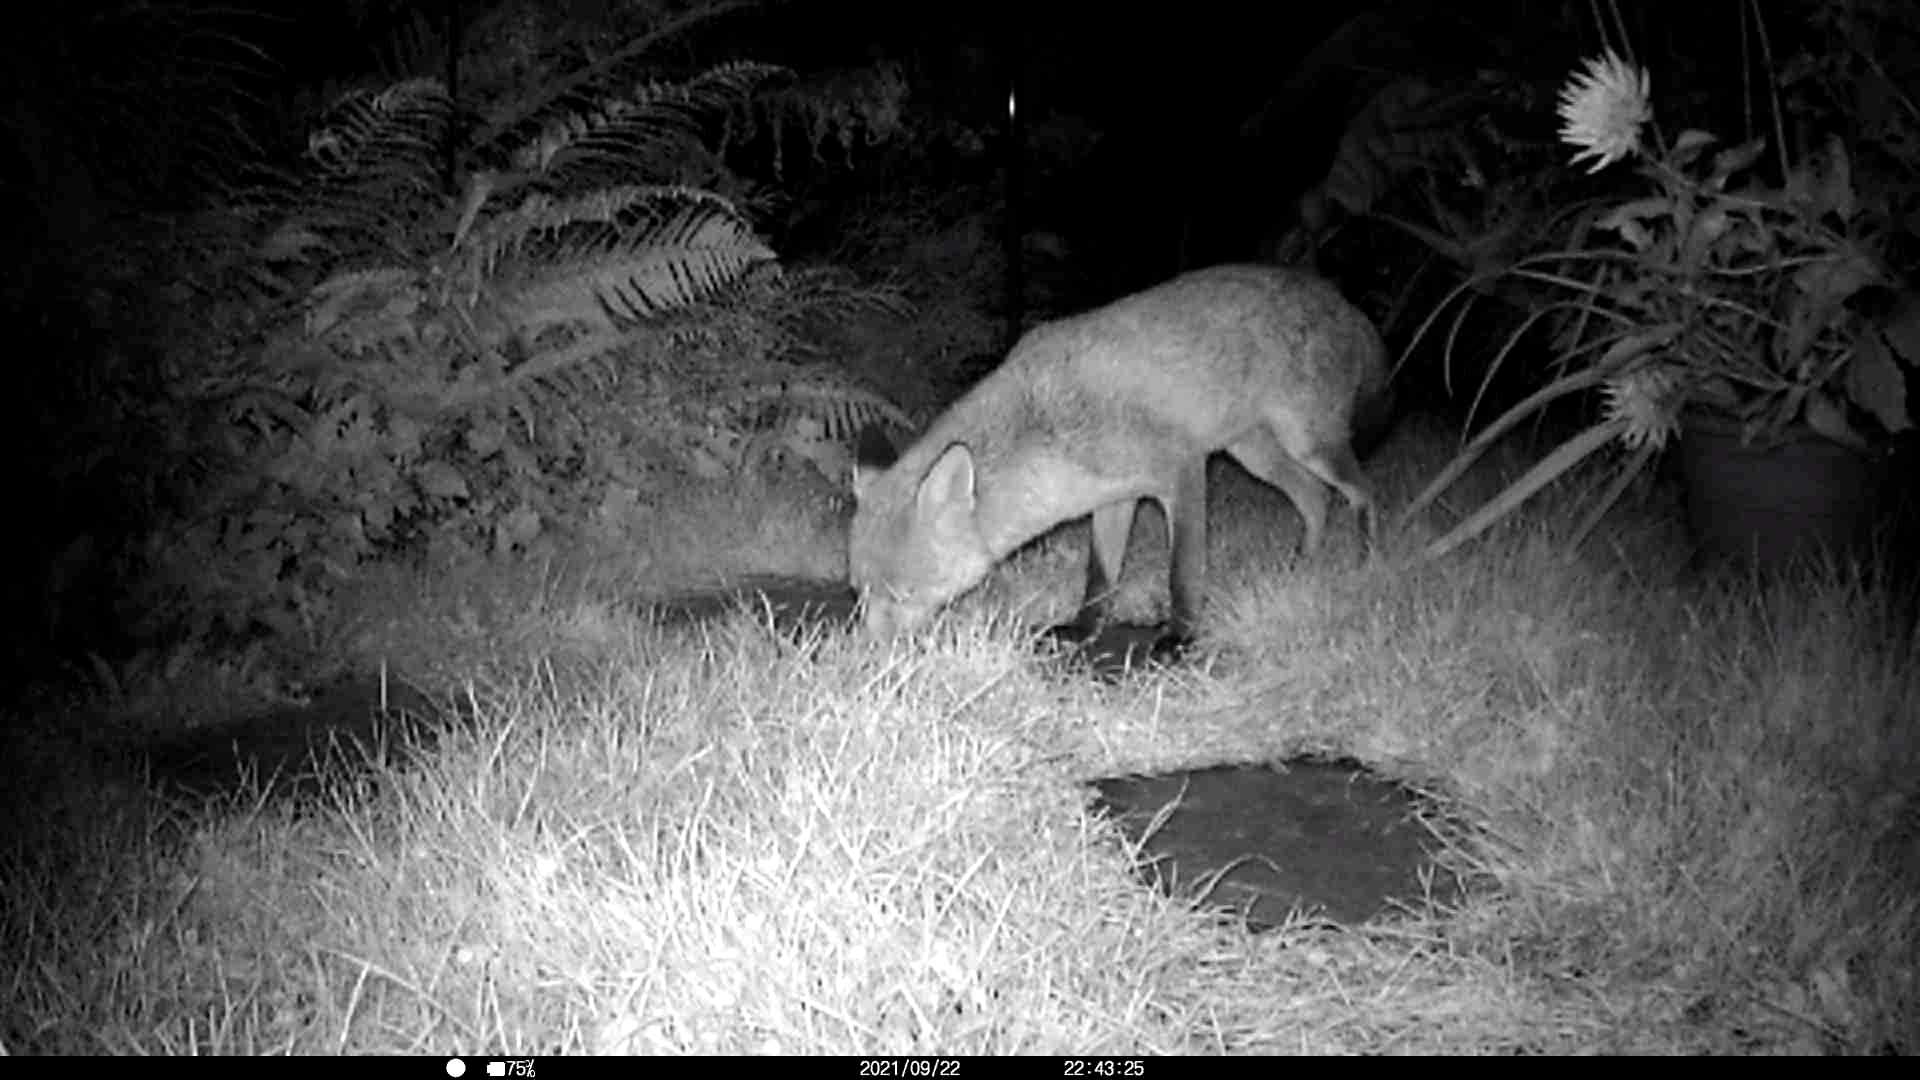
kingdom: Animalia
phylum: Chordata
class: Mammalia
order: Carnivora
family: Canidae
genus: Vulpes
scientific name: Vulpes vulpes
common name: Red fox
